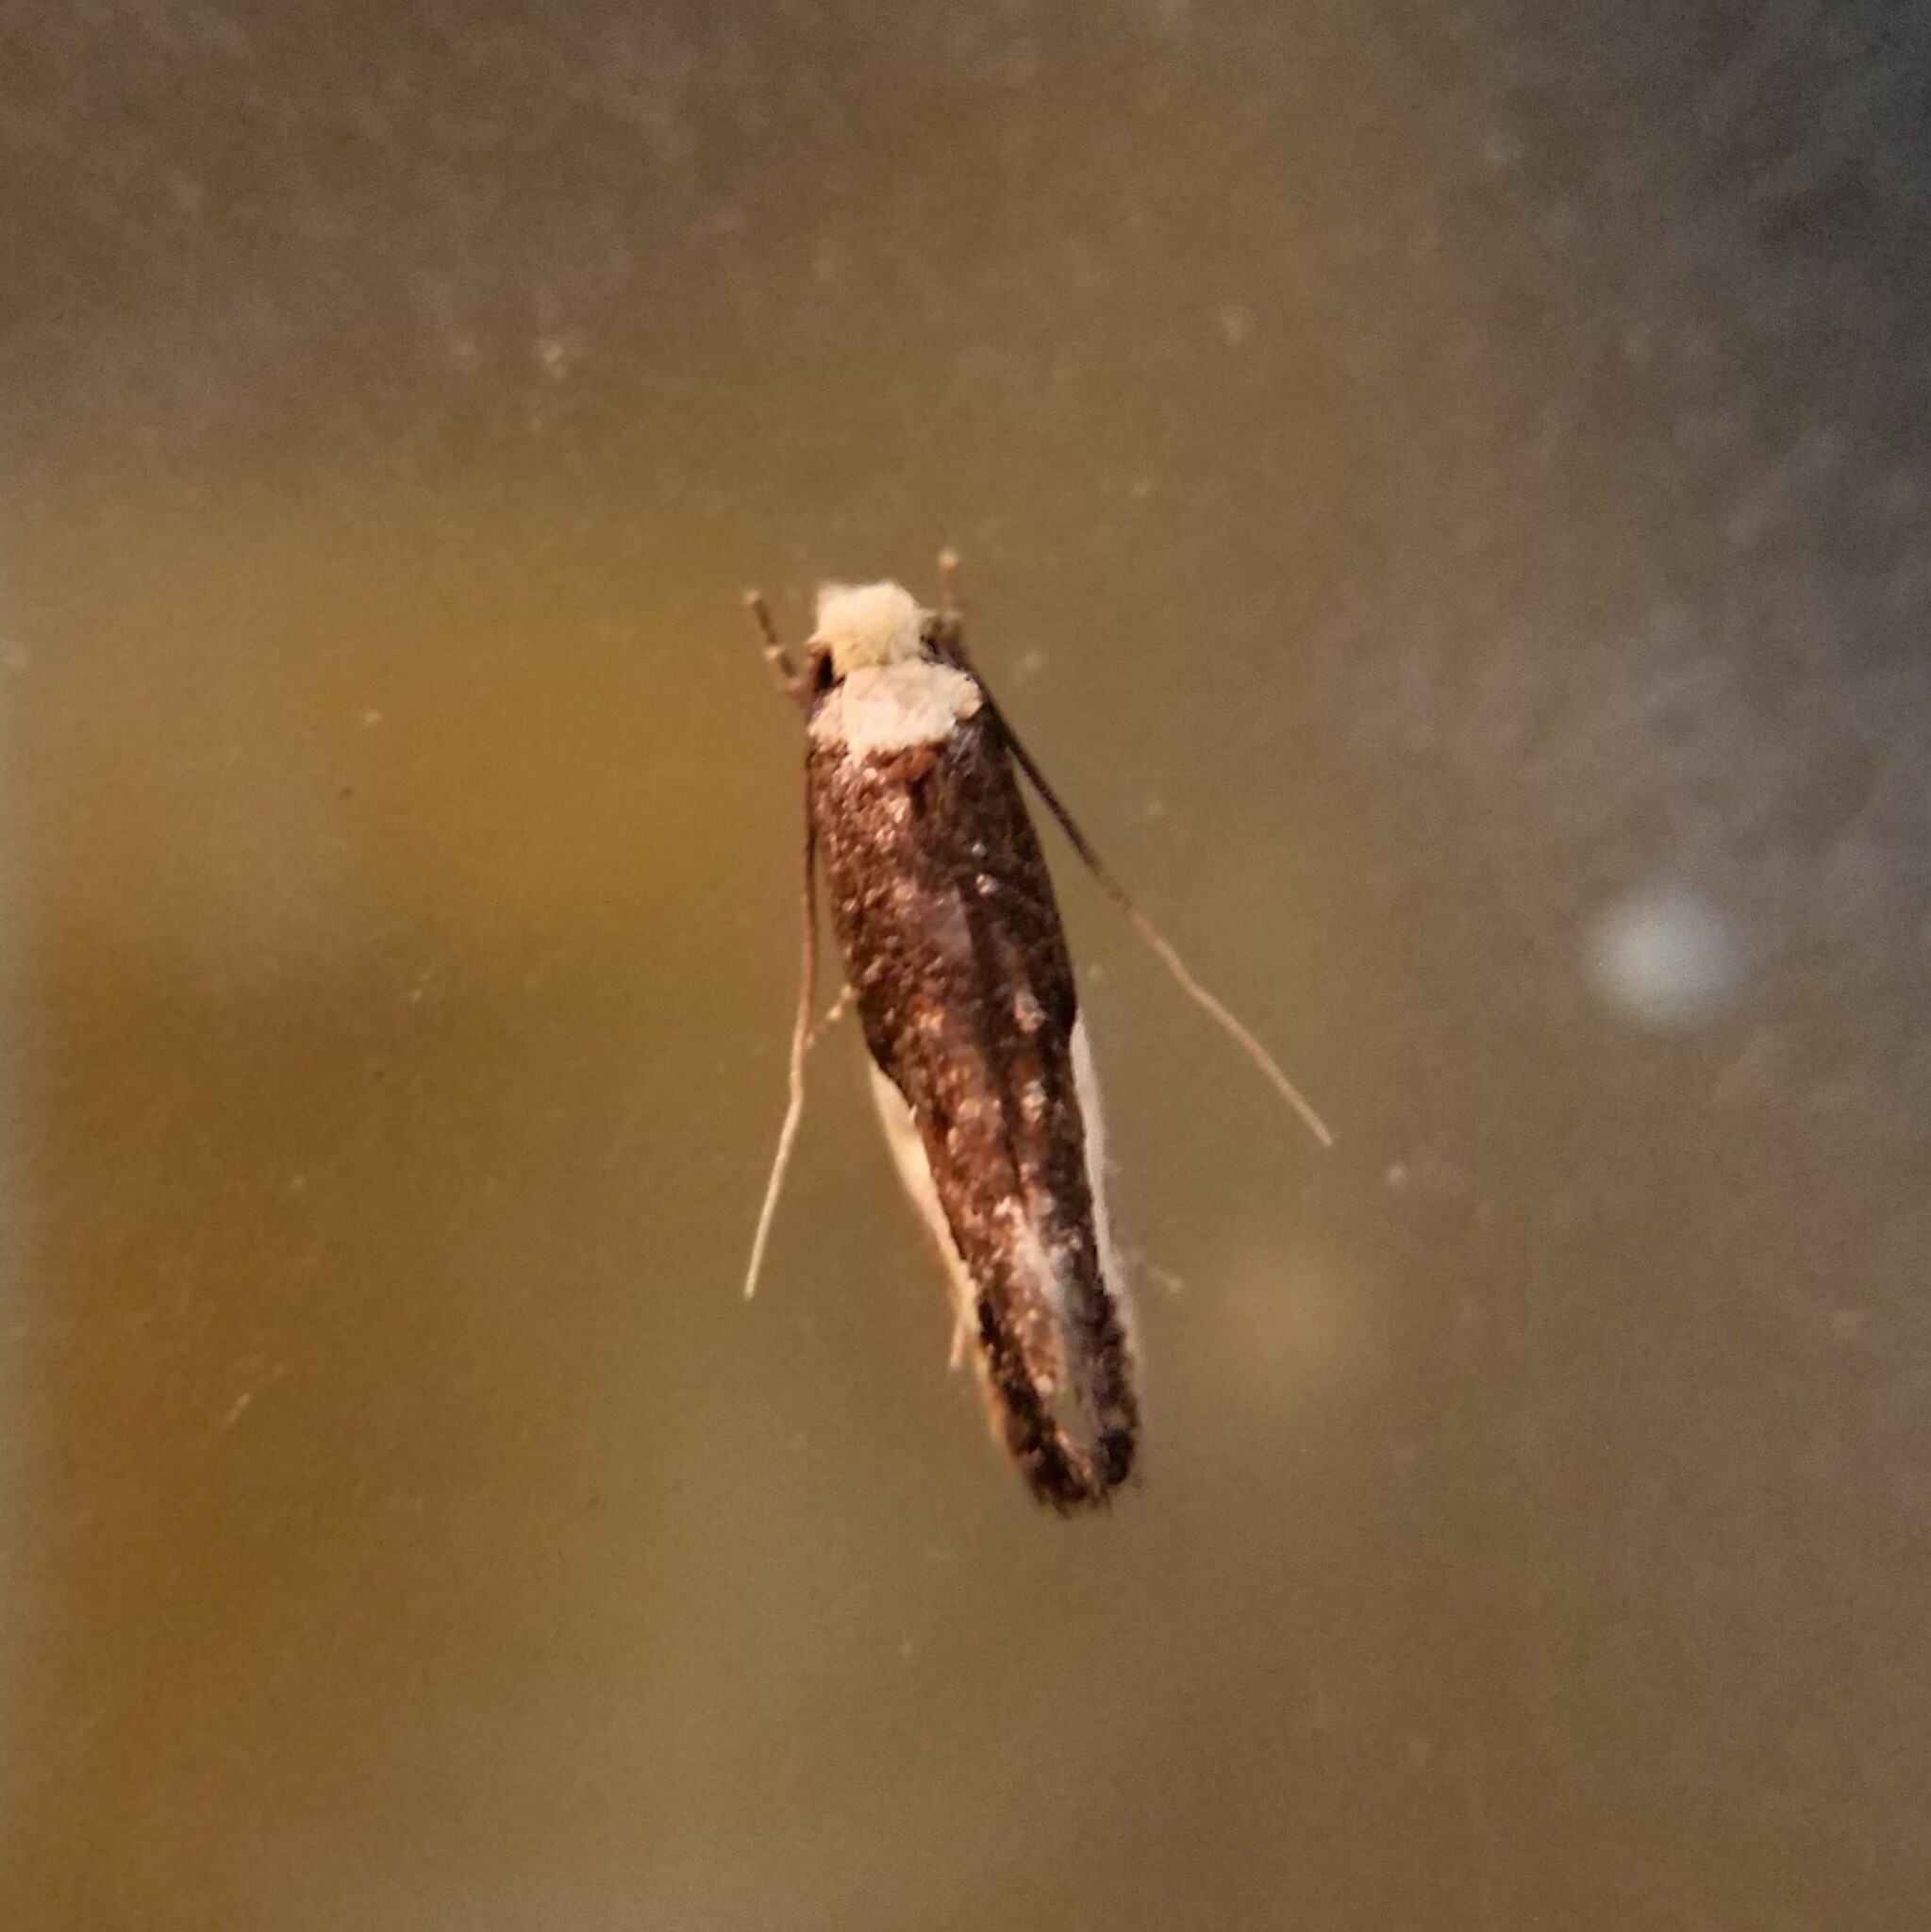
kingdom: Animalia
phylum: Arthropoda
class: Insecta
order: Lepidoptera
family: Tineidae
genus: Monopis
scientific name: Monopis longella
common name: Pavlovski's monopis moth
